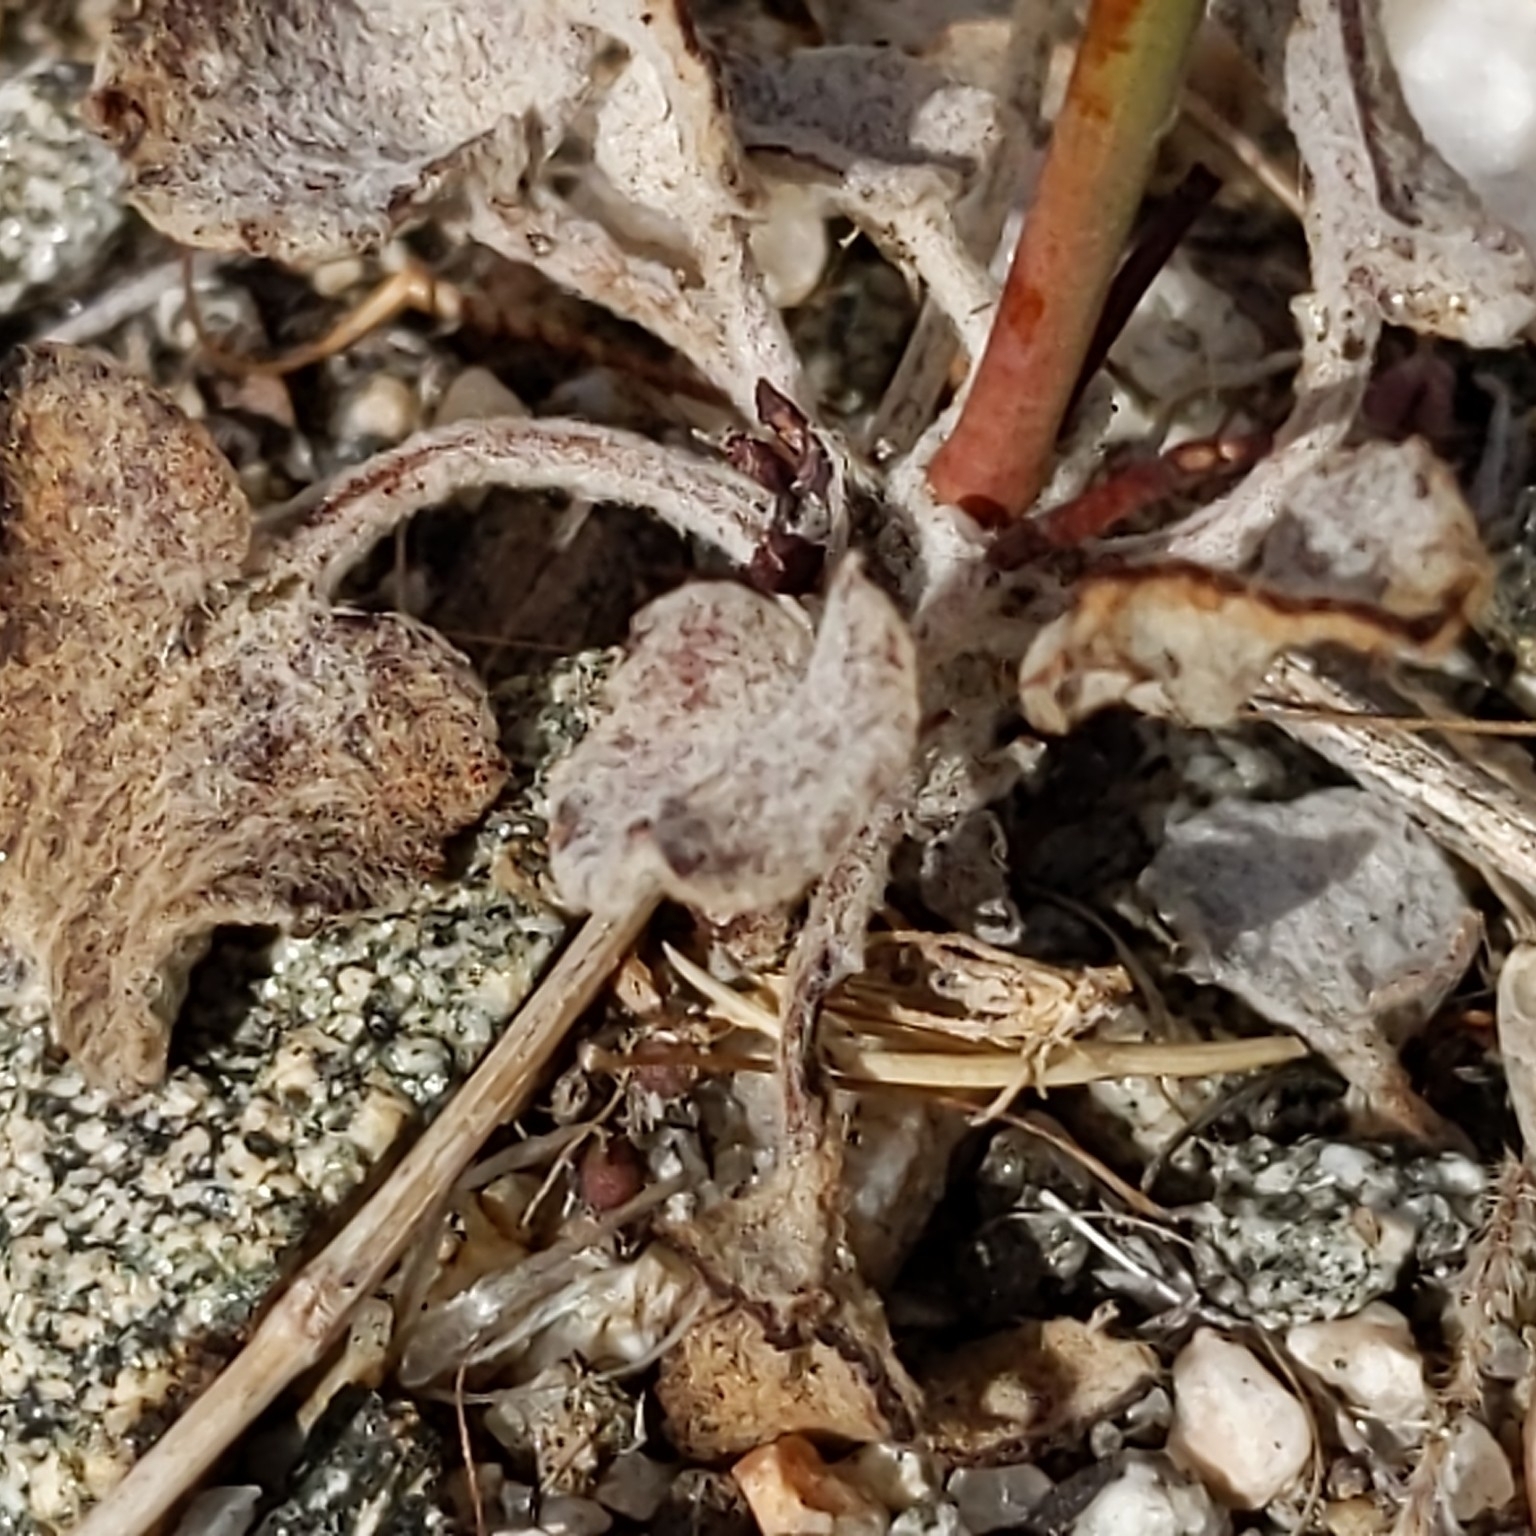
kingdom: Plantae
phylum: Tracheophyta
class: Magnoliopsida
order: Caryophyllales
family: Polygonaceae
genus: Eriogonum
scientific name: Eriogonum deflexum
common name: Skeleton-weed
